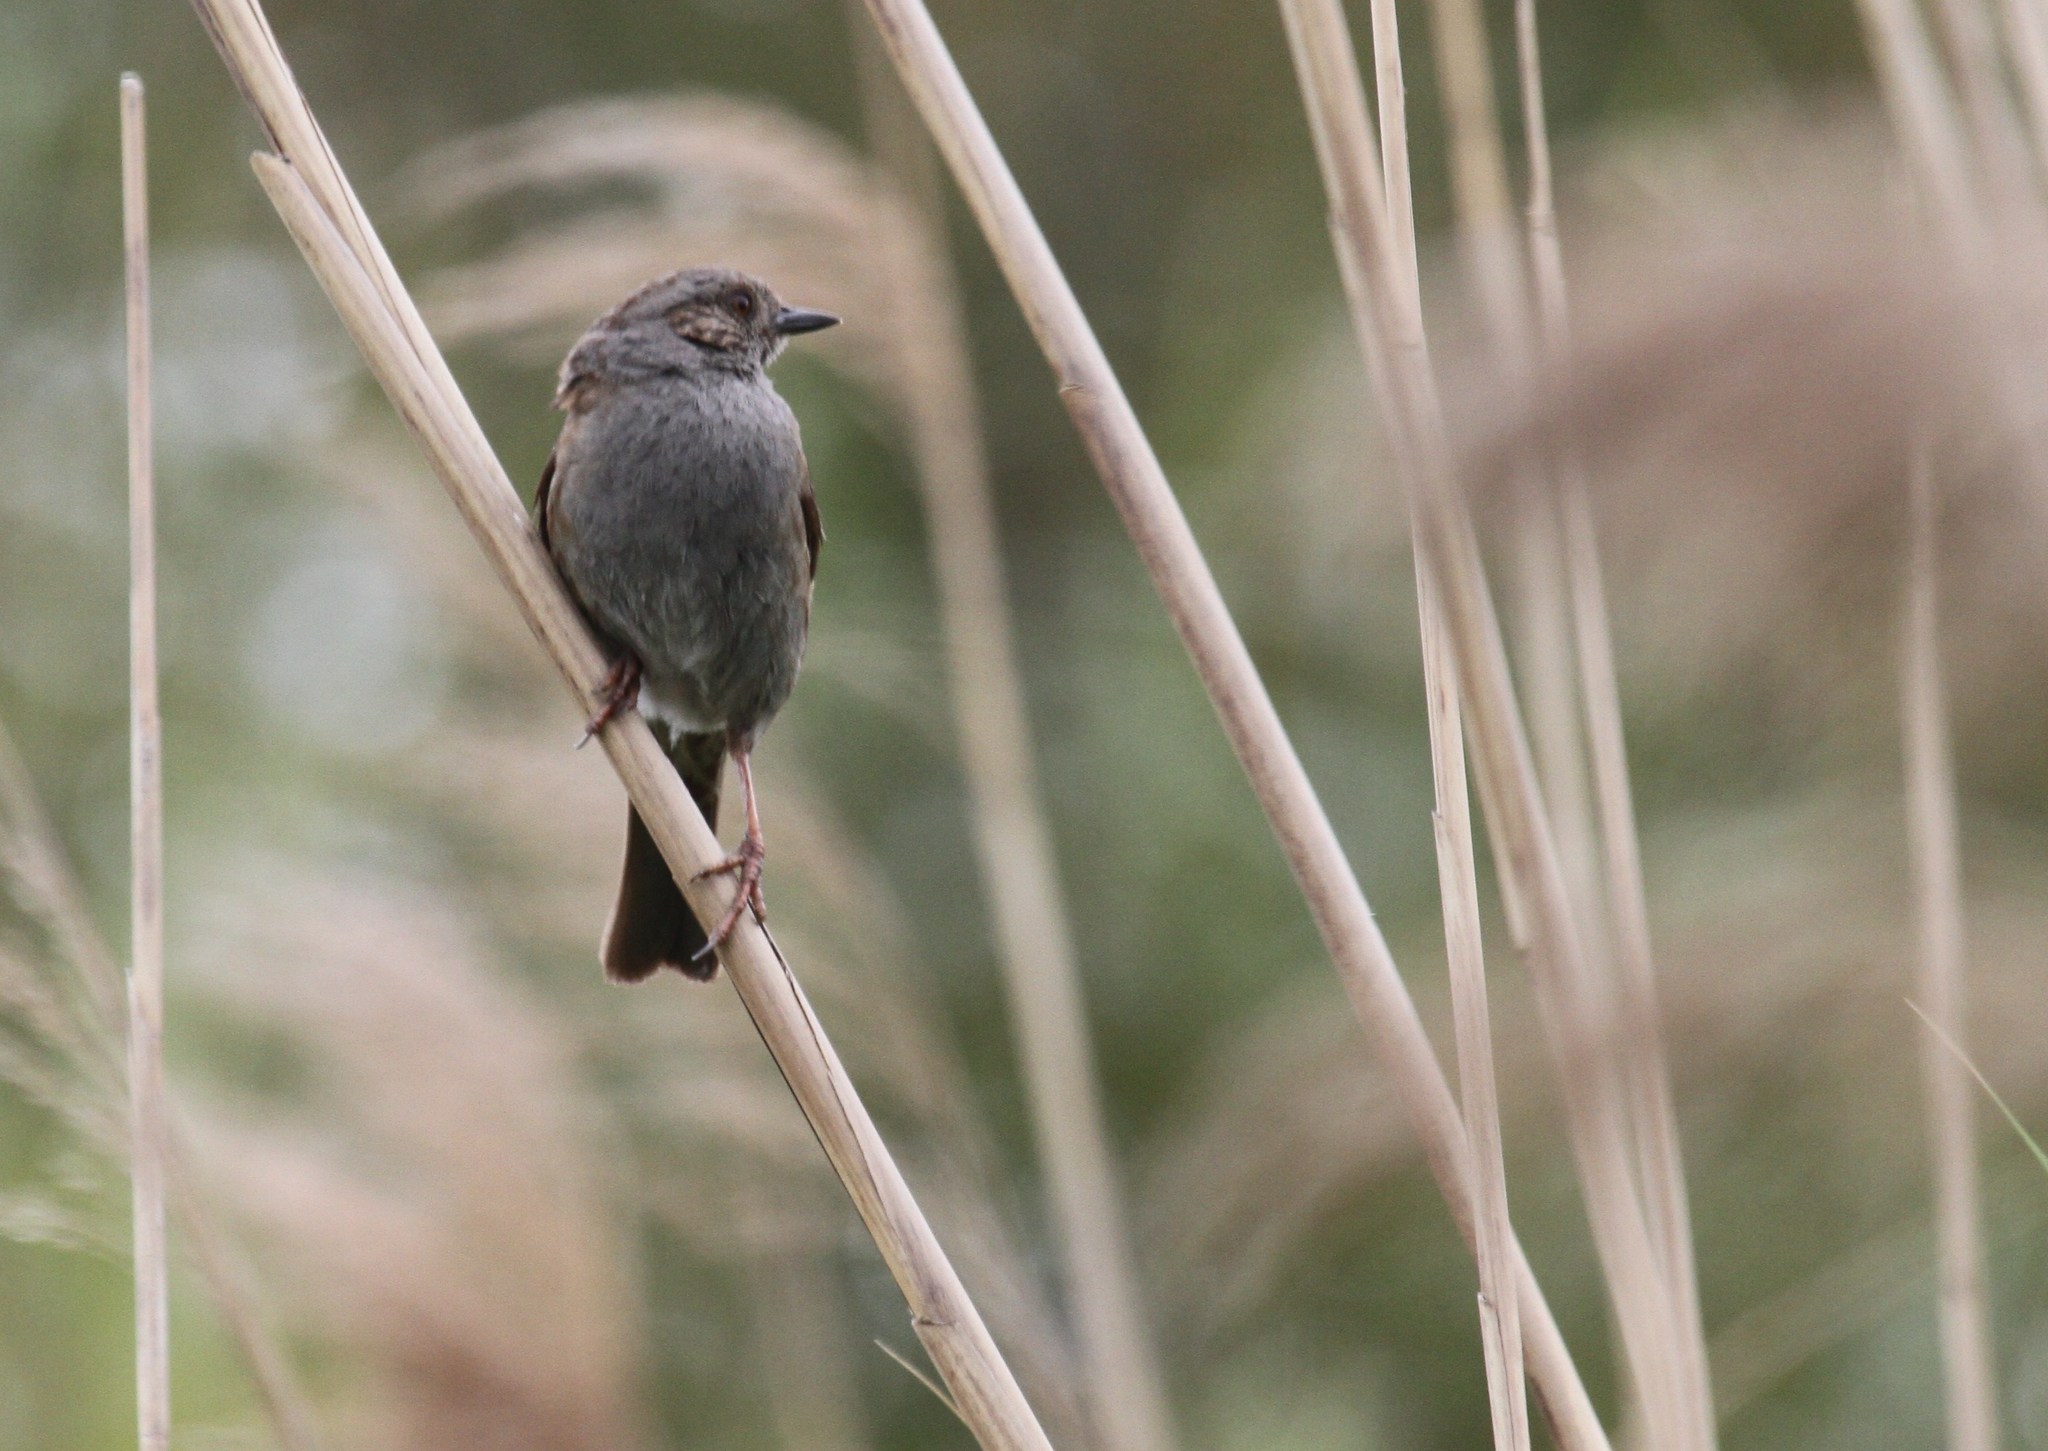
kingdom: Animalia
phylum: Chordata
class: Aves
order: Passeriformes
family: Prunellidae
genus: Prunella
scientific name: Prunella modularis
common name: Dunnock
